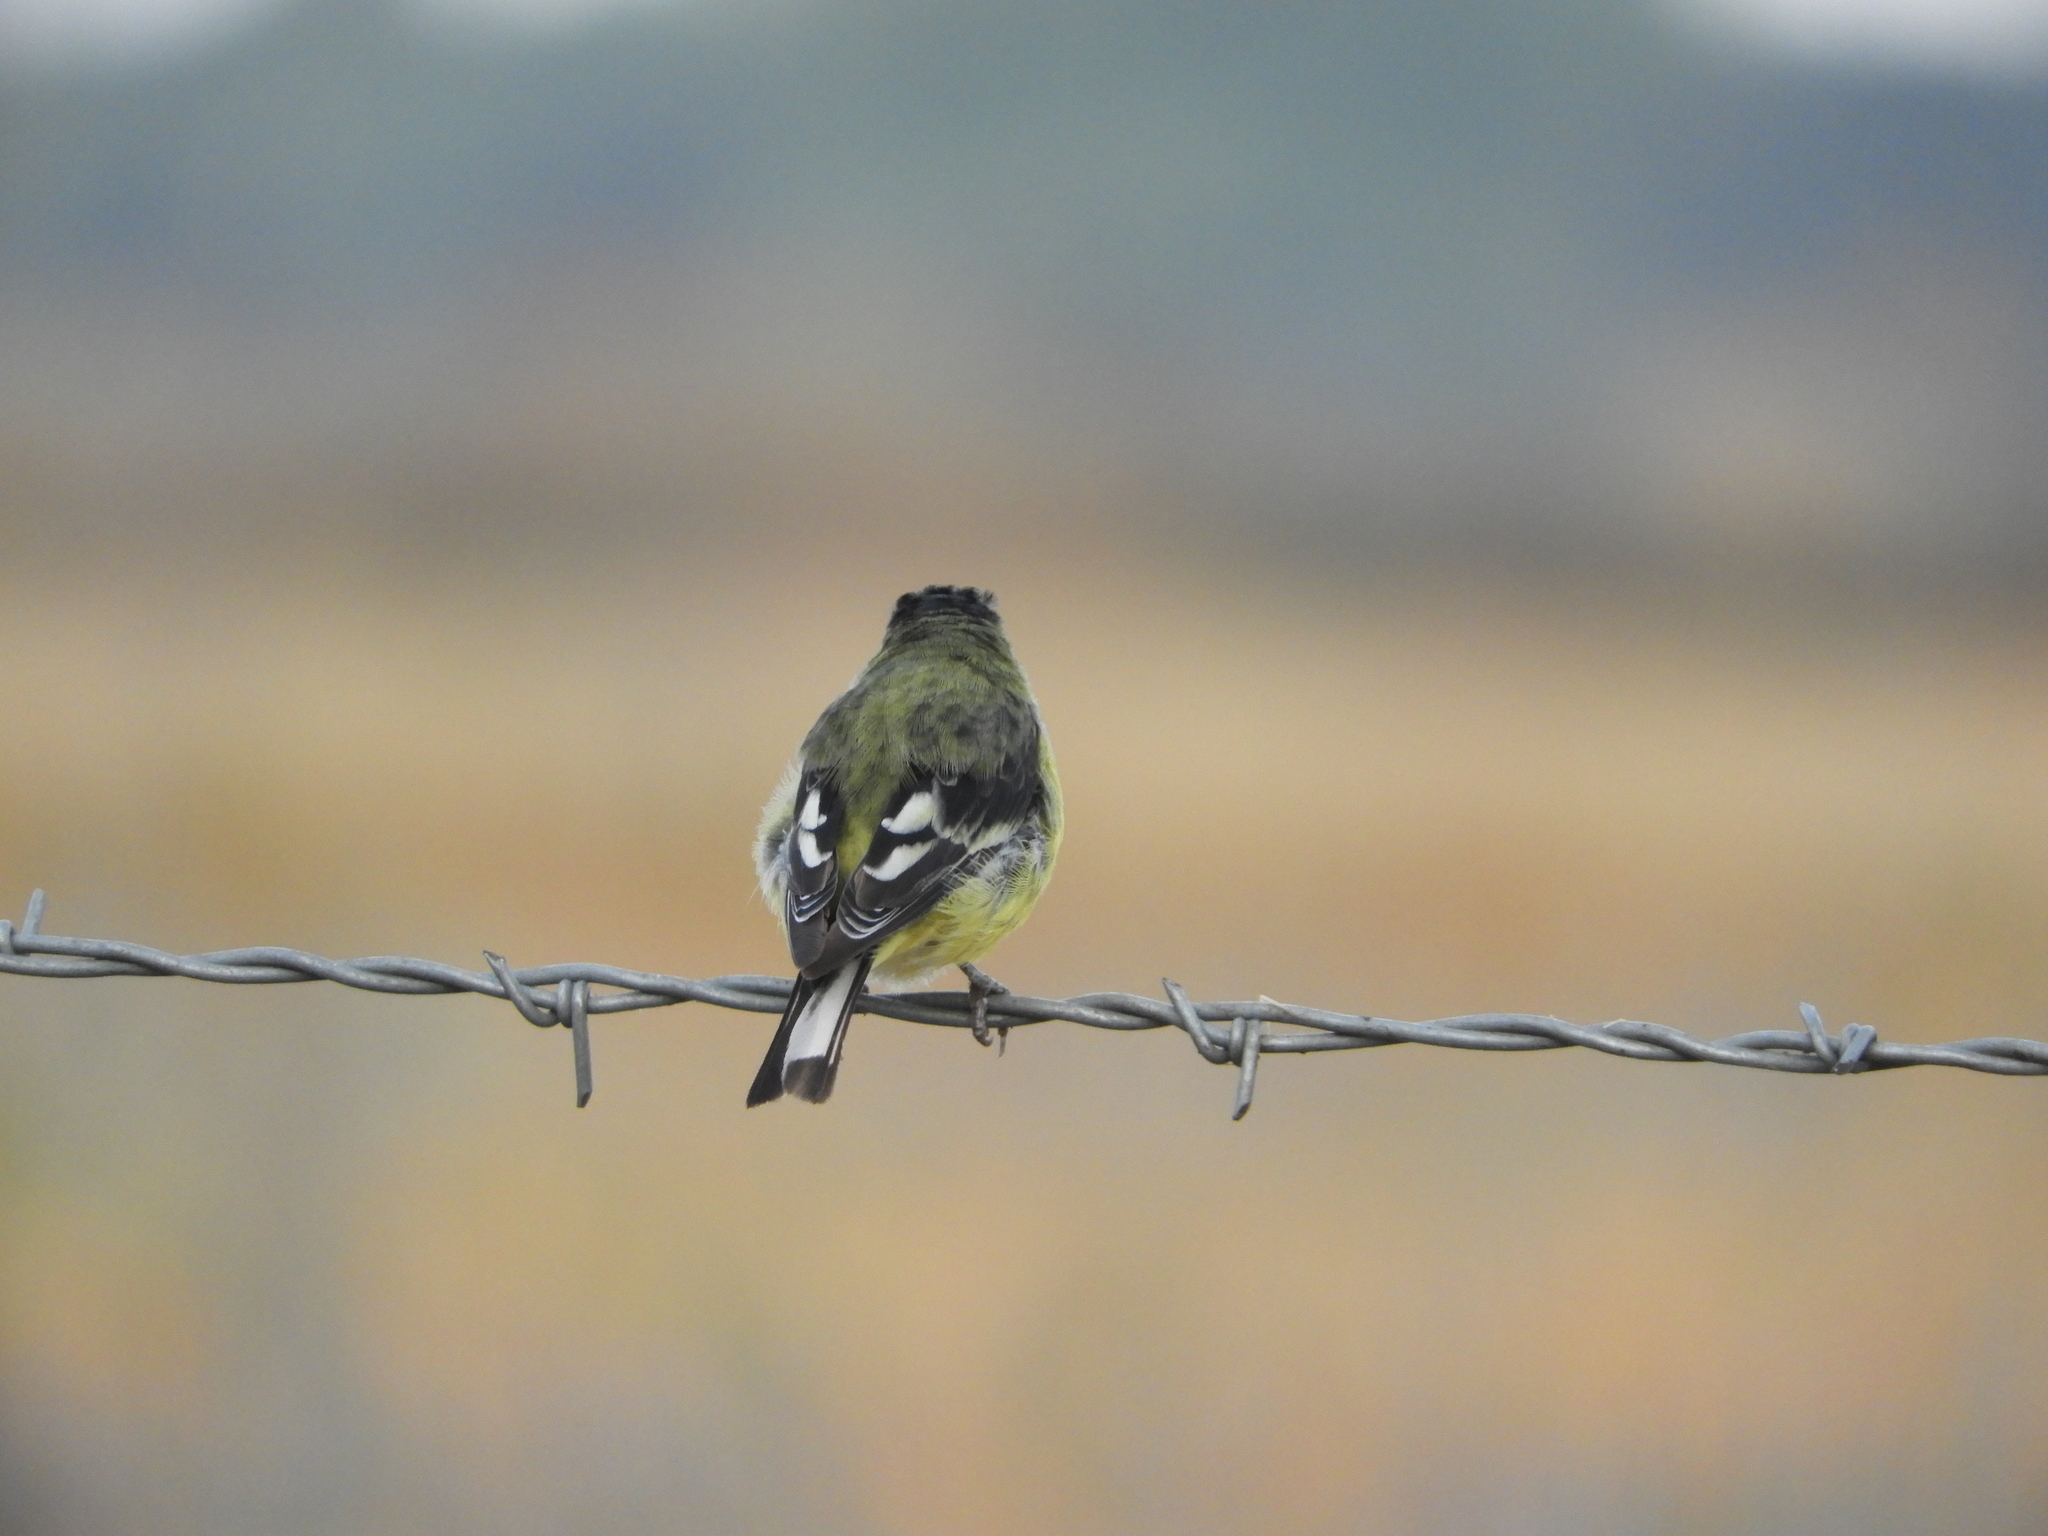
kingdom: Animalia
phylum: Chordata
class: Aves
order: Passeriformes
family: Fringillidae
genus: Spinus
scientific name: Spinus psaltria
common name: Lesser goldfinch
